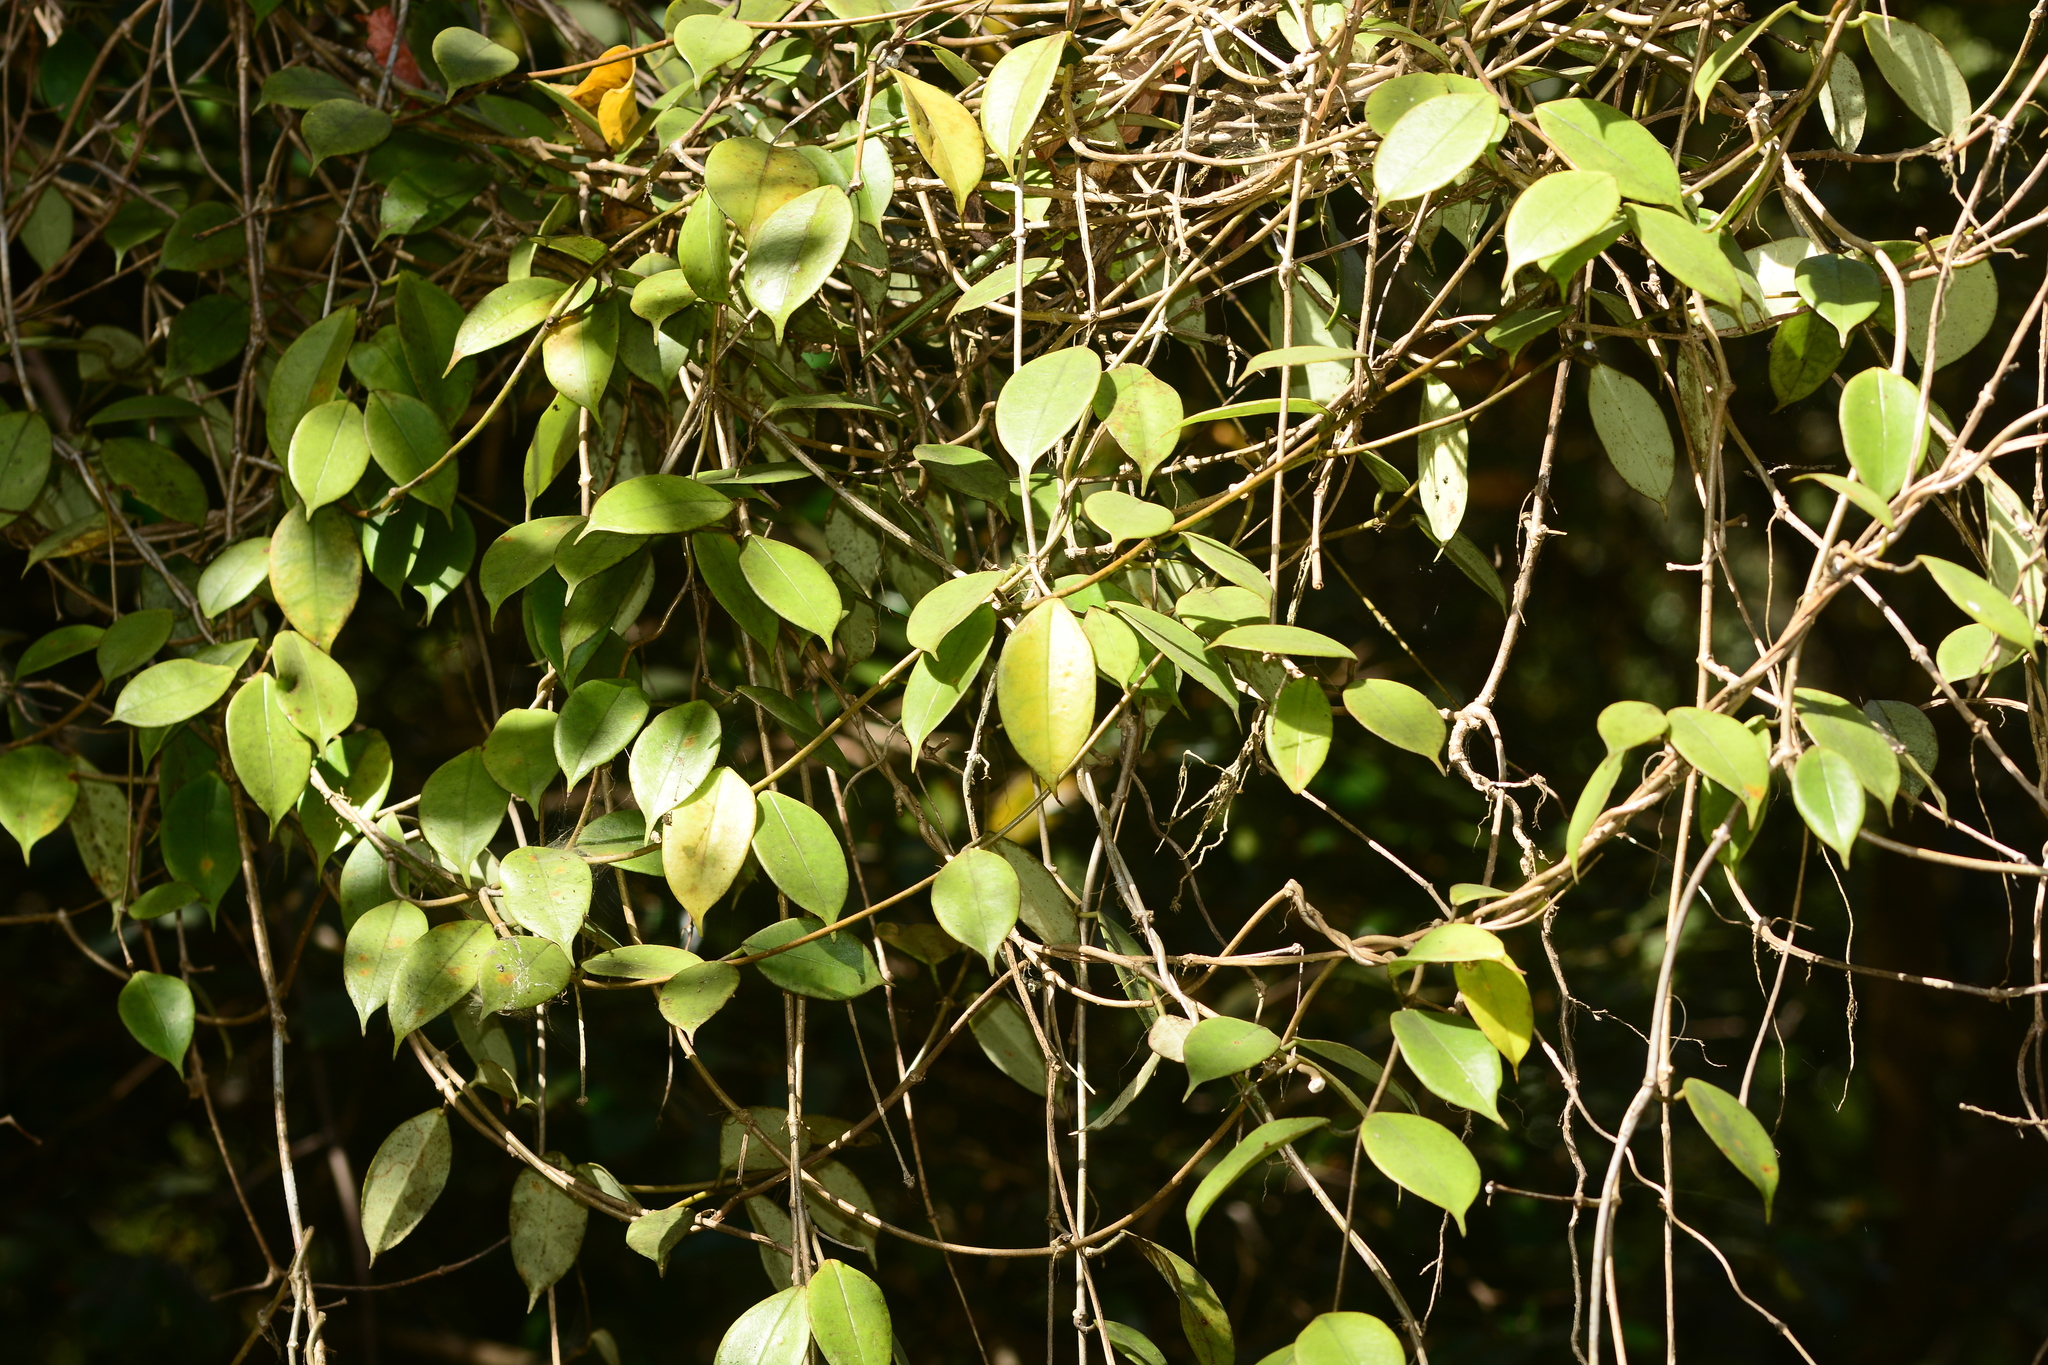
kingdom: Plantae
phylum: Tracheophyta
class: Magnoliopsida
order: Gentianales
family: Apocynaceae
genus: Hoya
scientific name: Hoya wightii
